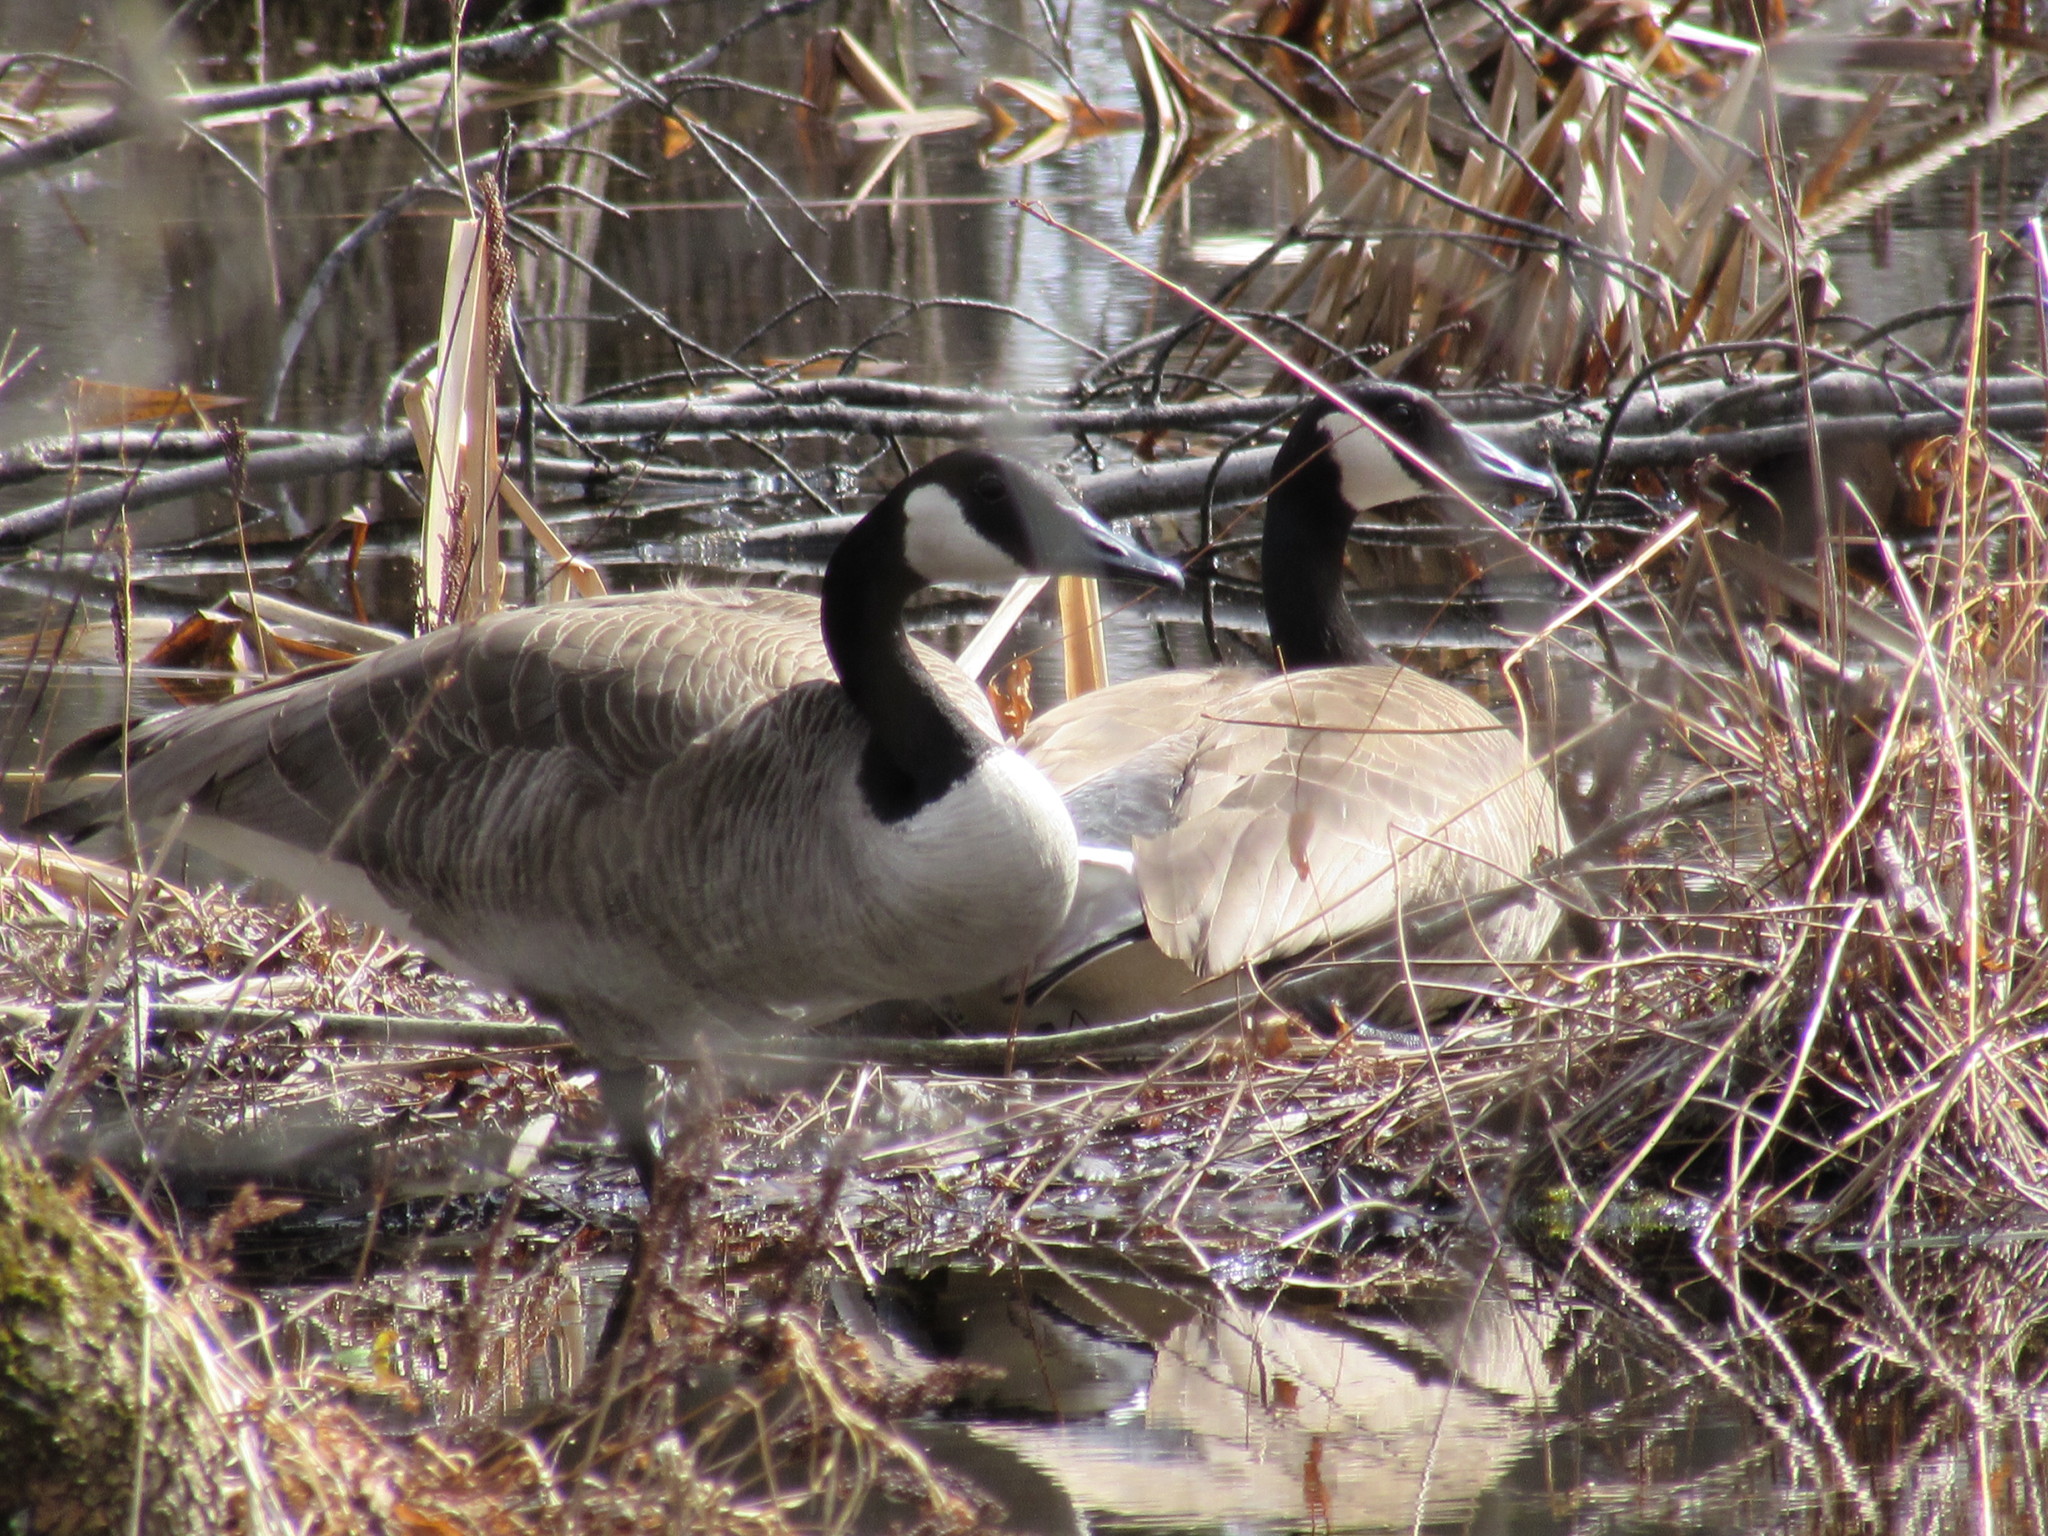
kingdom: Animalia
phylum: Chordata
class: Aves
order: Anseriformes
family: Anatidae
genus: Branta
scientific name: Branta canadensis
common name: Canada goose
